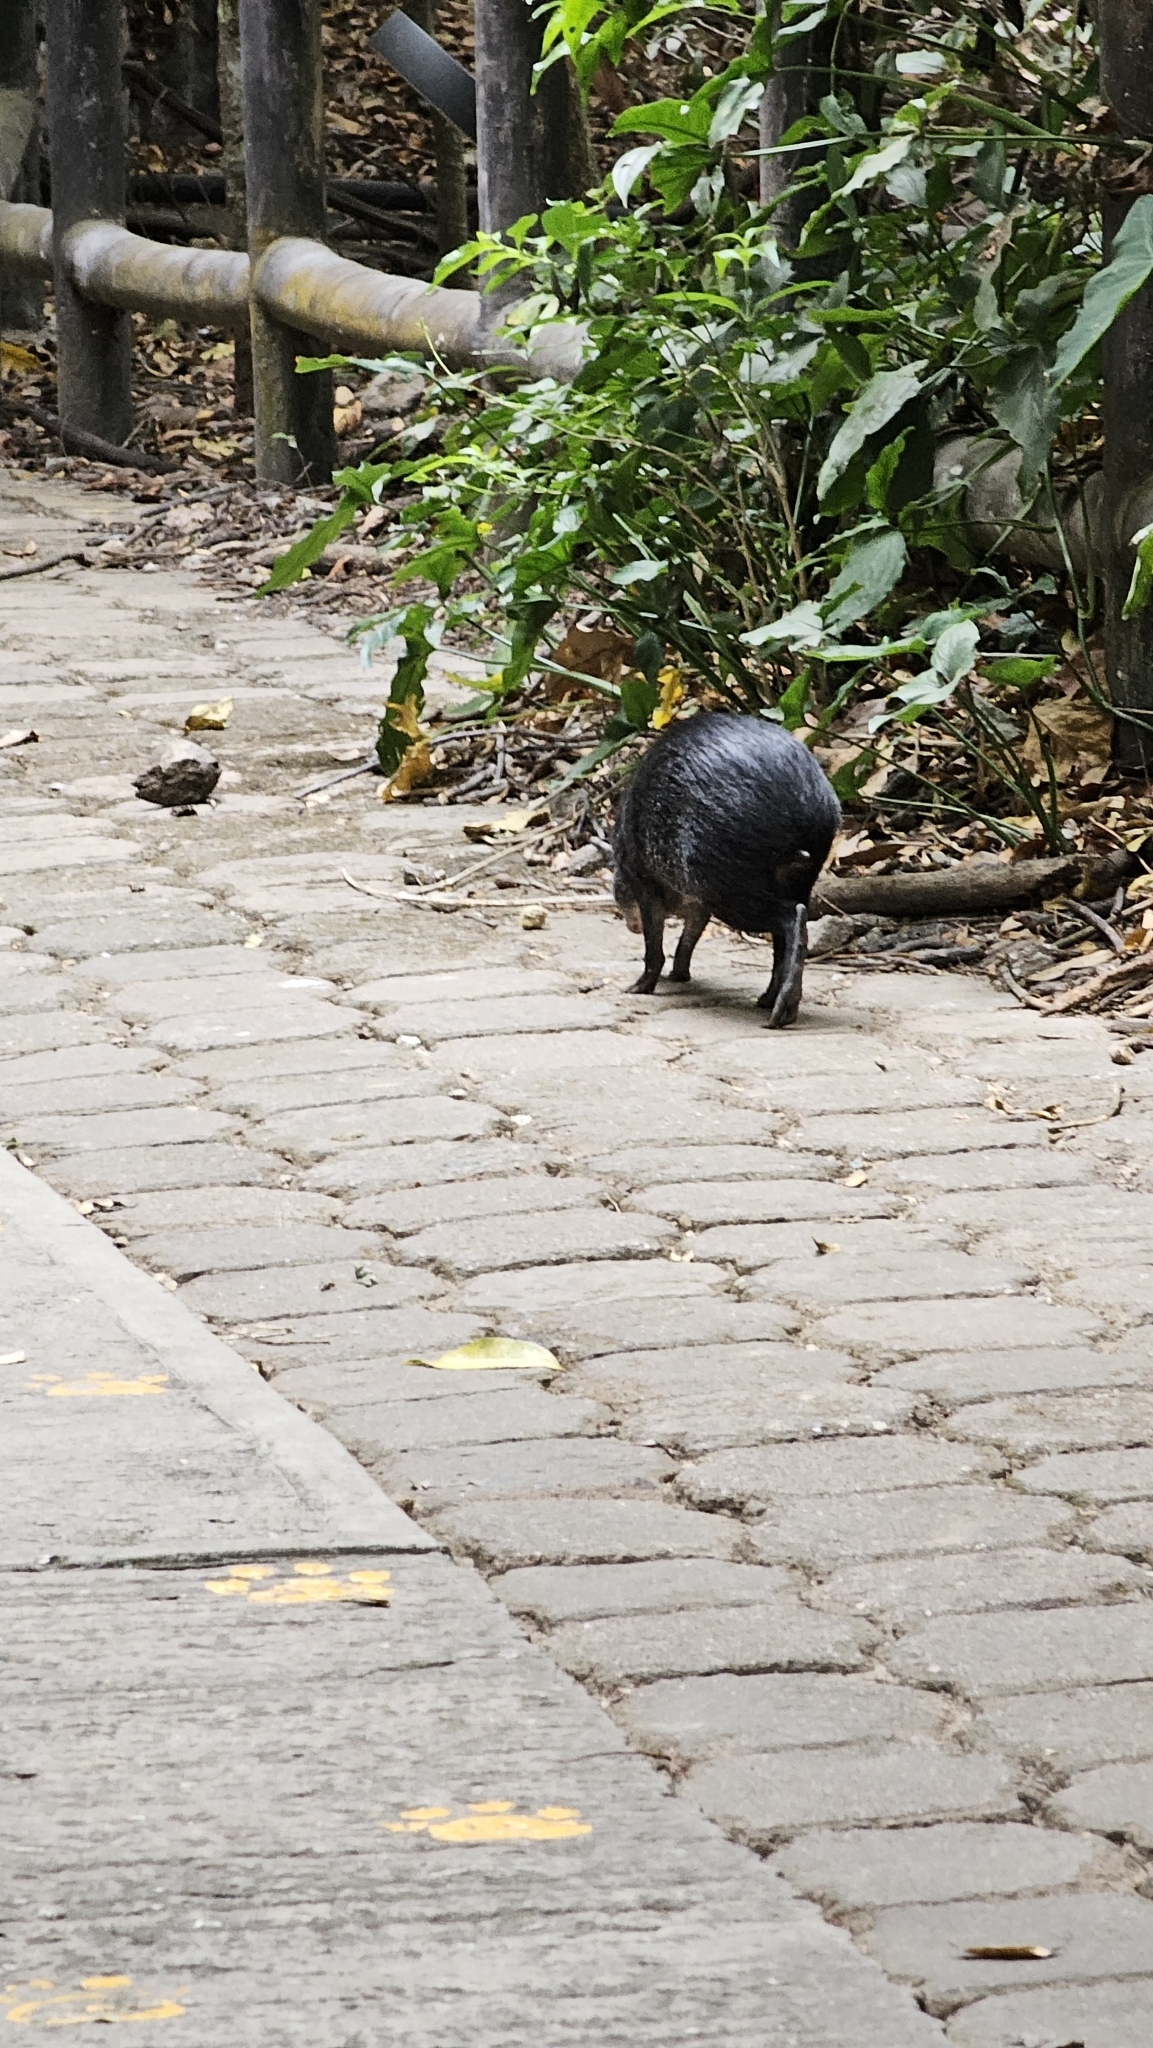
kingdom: Animalia
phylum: Chordata
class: Mammalia
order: Rodentia
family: Dasyproctidae
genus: Dasyprocta
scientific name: Dasyprocta mexicana
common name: Mexican agouti
